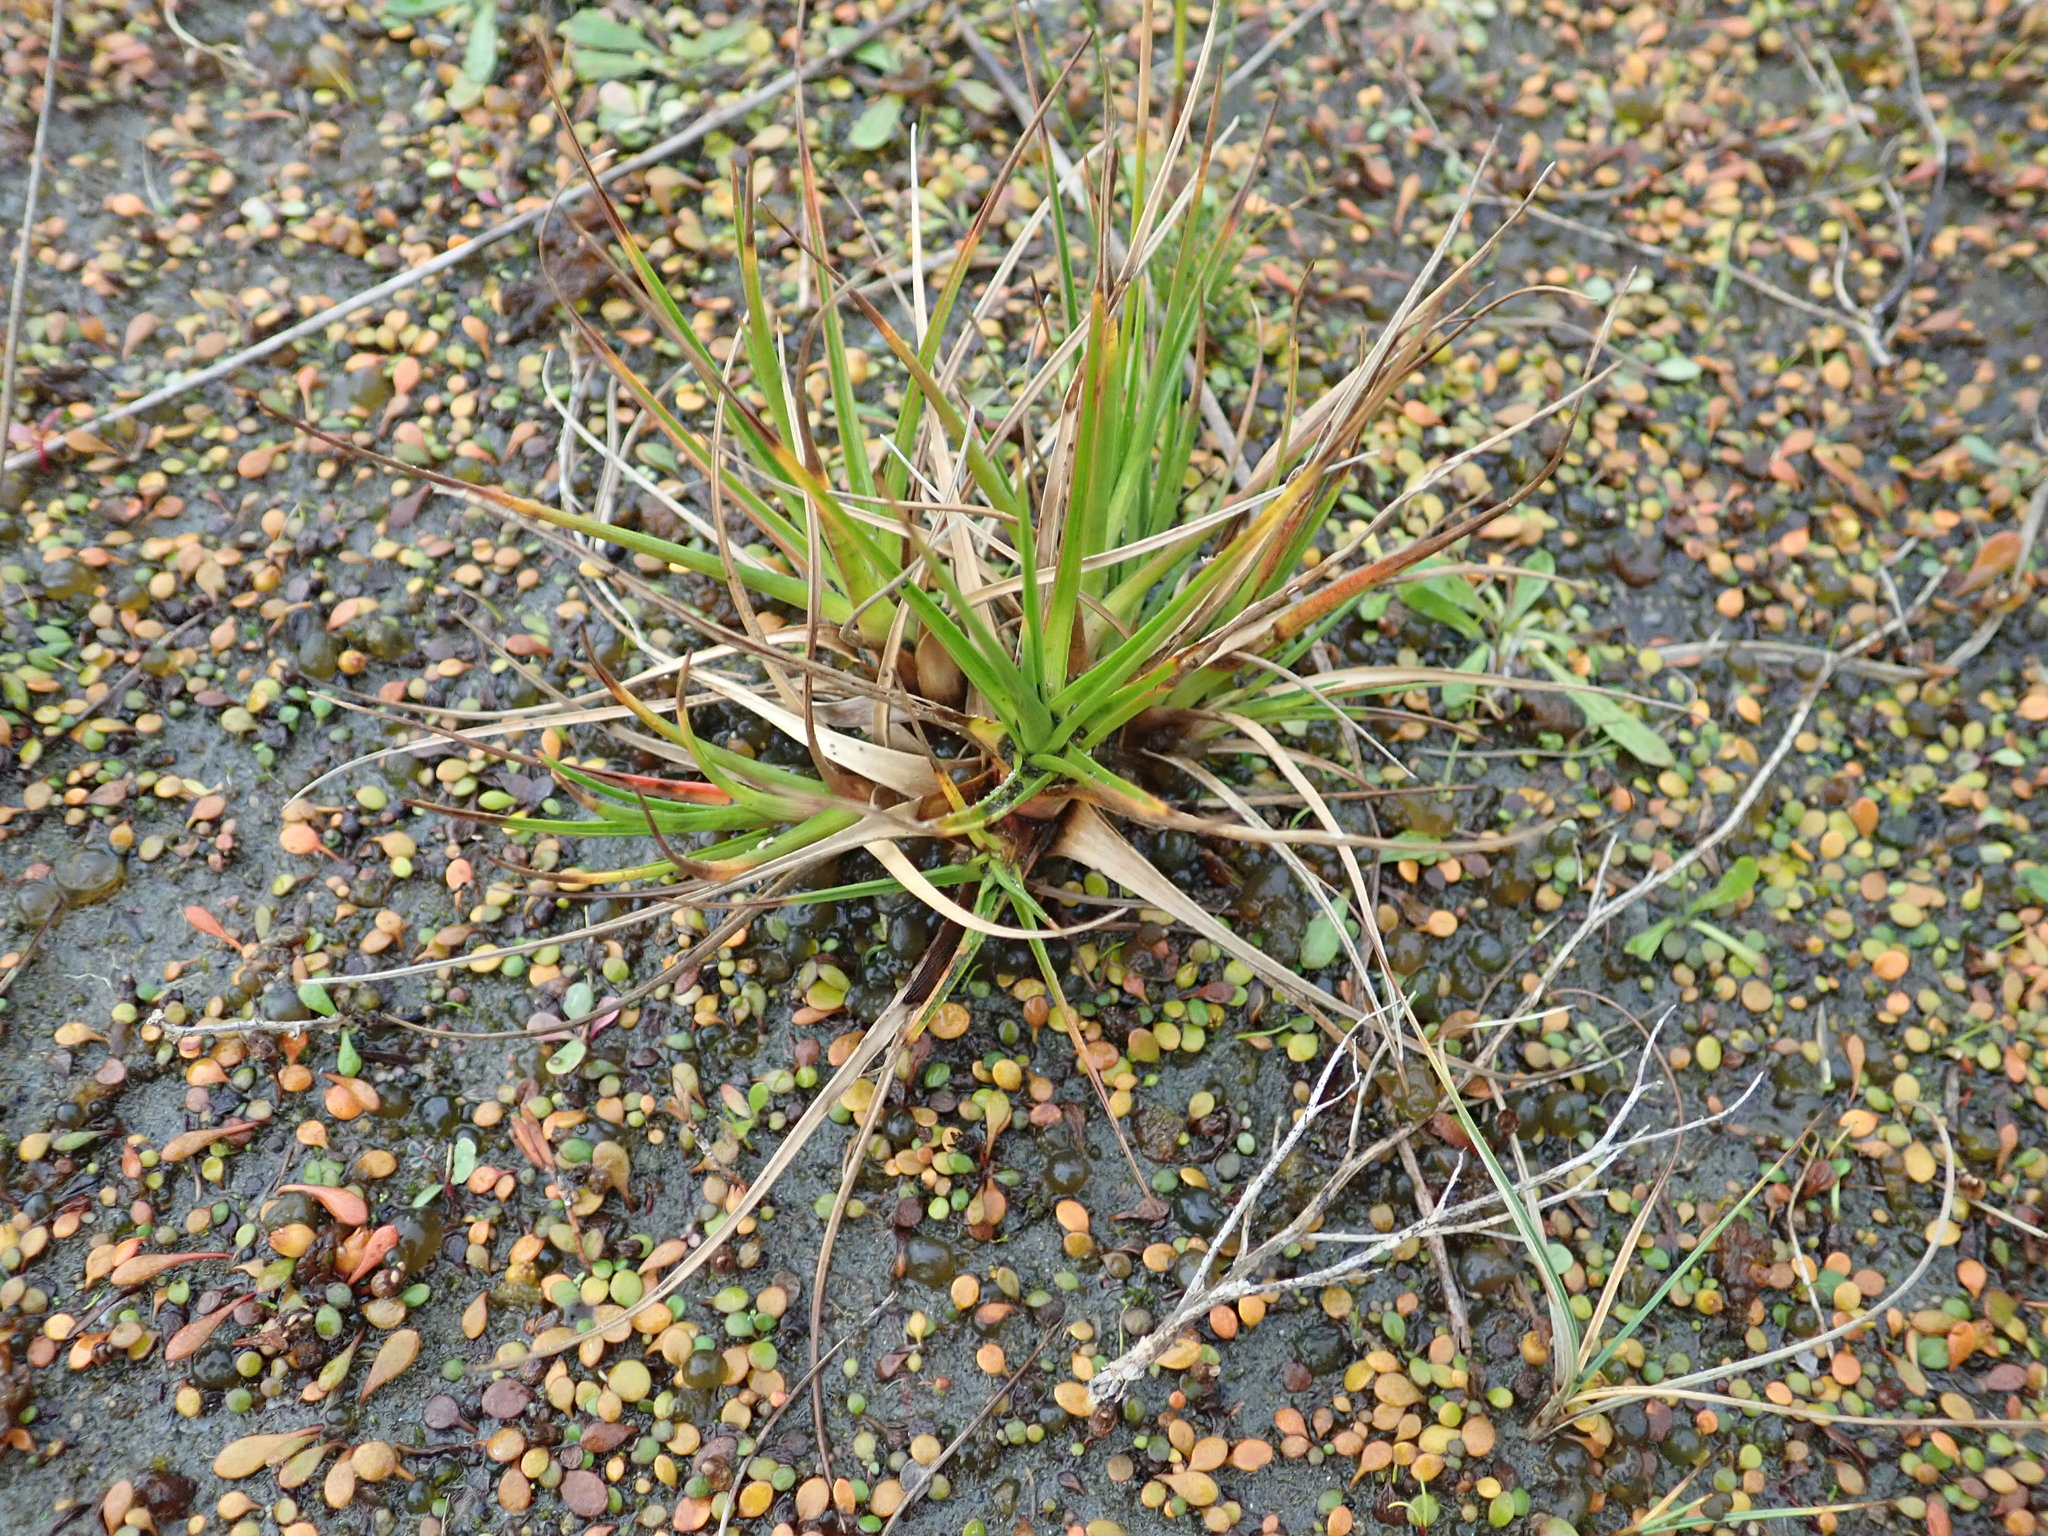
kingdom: Plantae
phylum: Tracheophyta
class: Liliopsida
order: Poales
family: Juncaceae
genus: Juncus
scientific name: Juncus caespiticius
